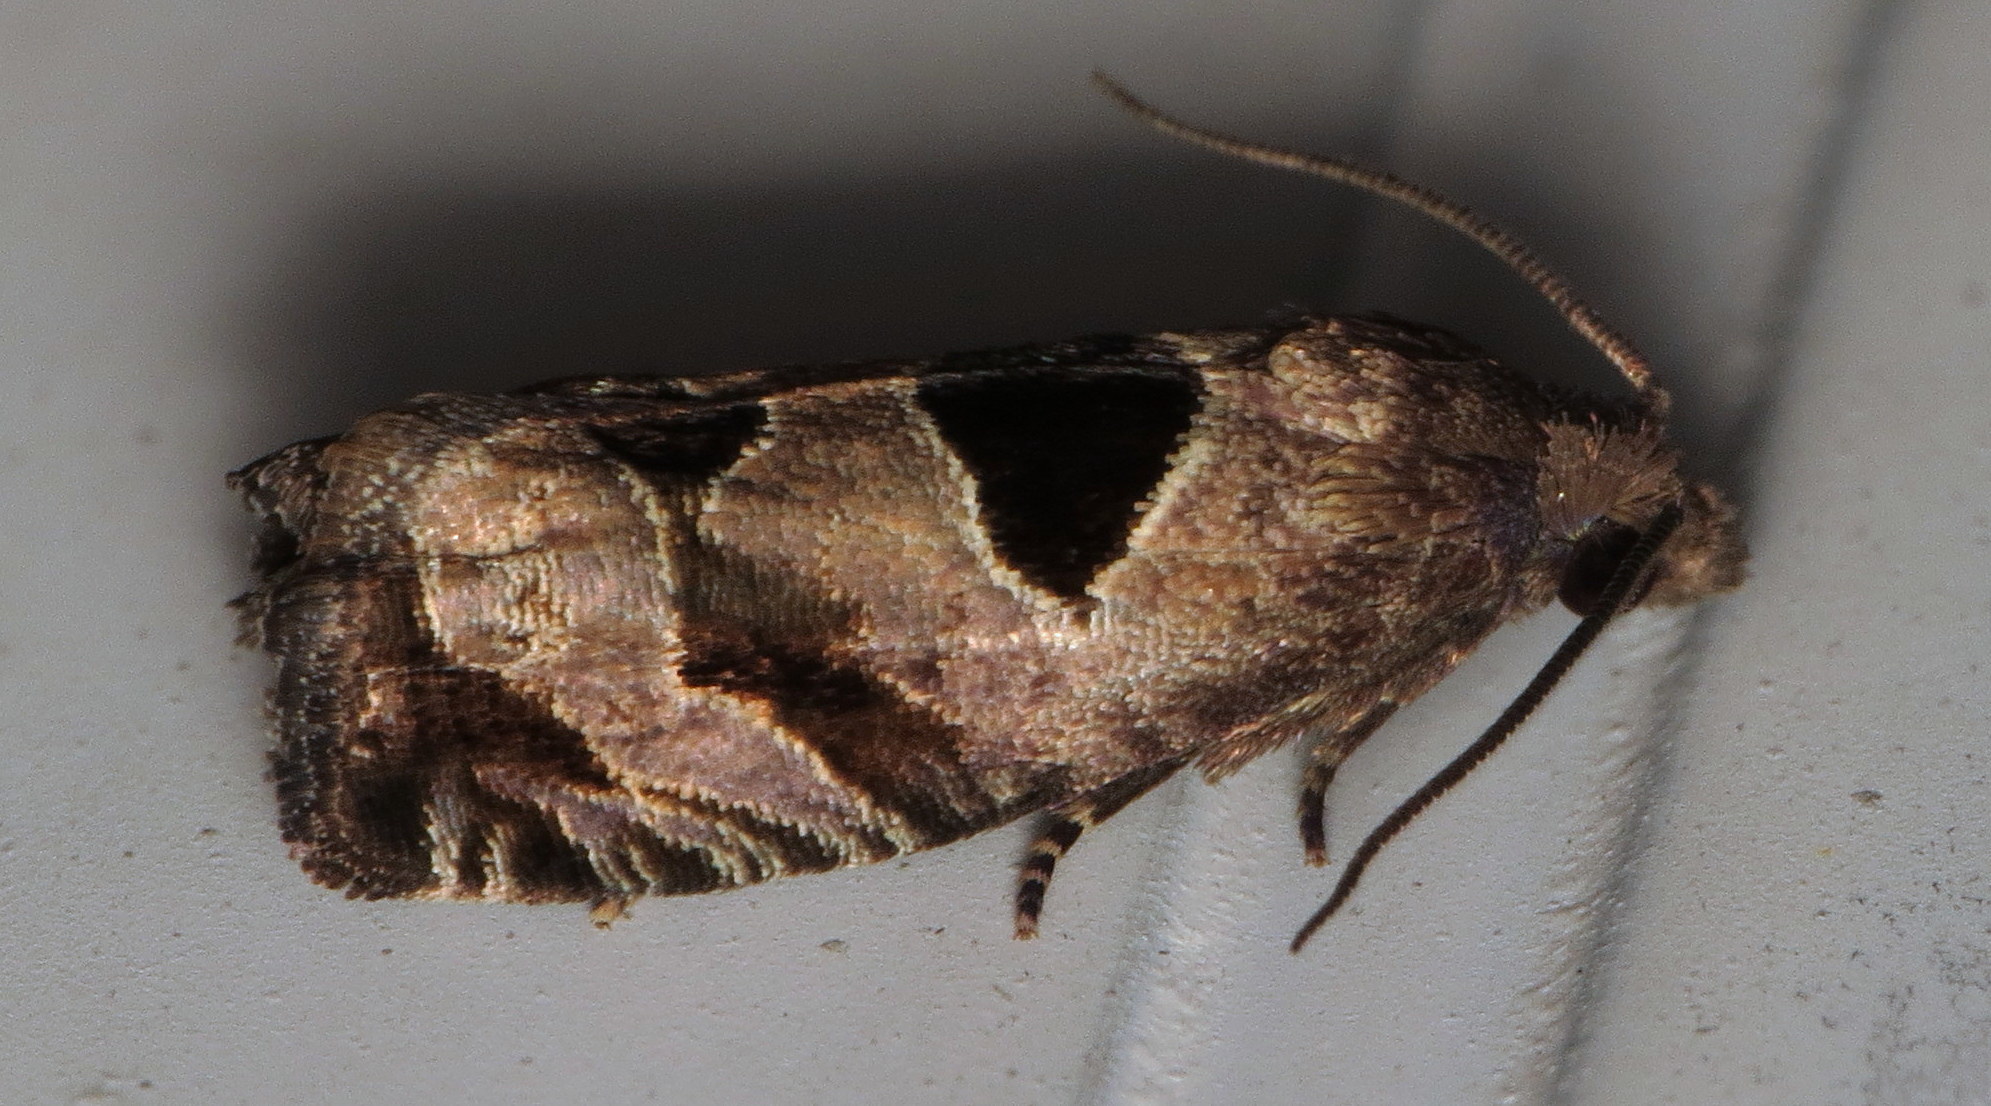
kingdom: Animalia
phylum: Arthropoda
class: Insecta
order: Lepidoptera
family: Tortricidae
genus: Epiblema
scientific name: Epiblema brightonana
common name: Brighton's epiblema moth
